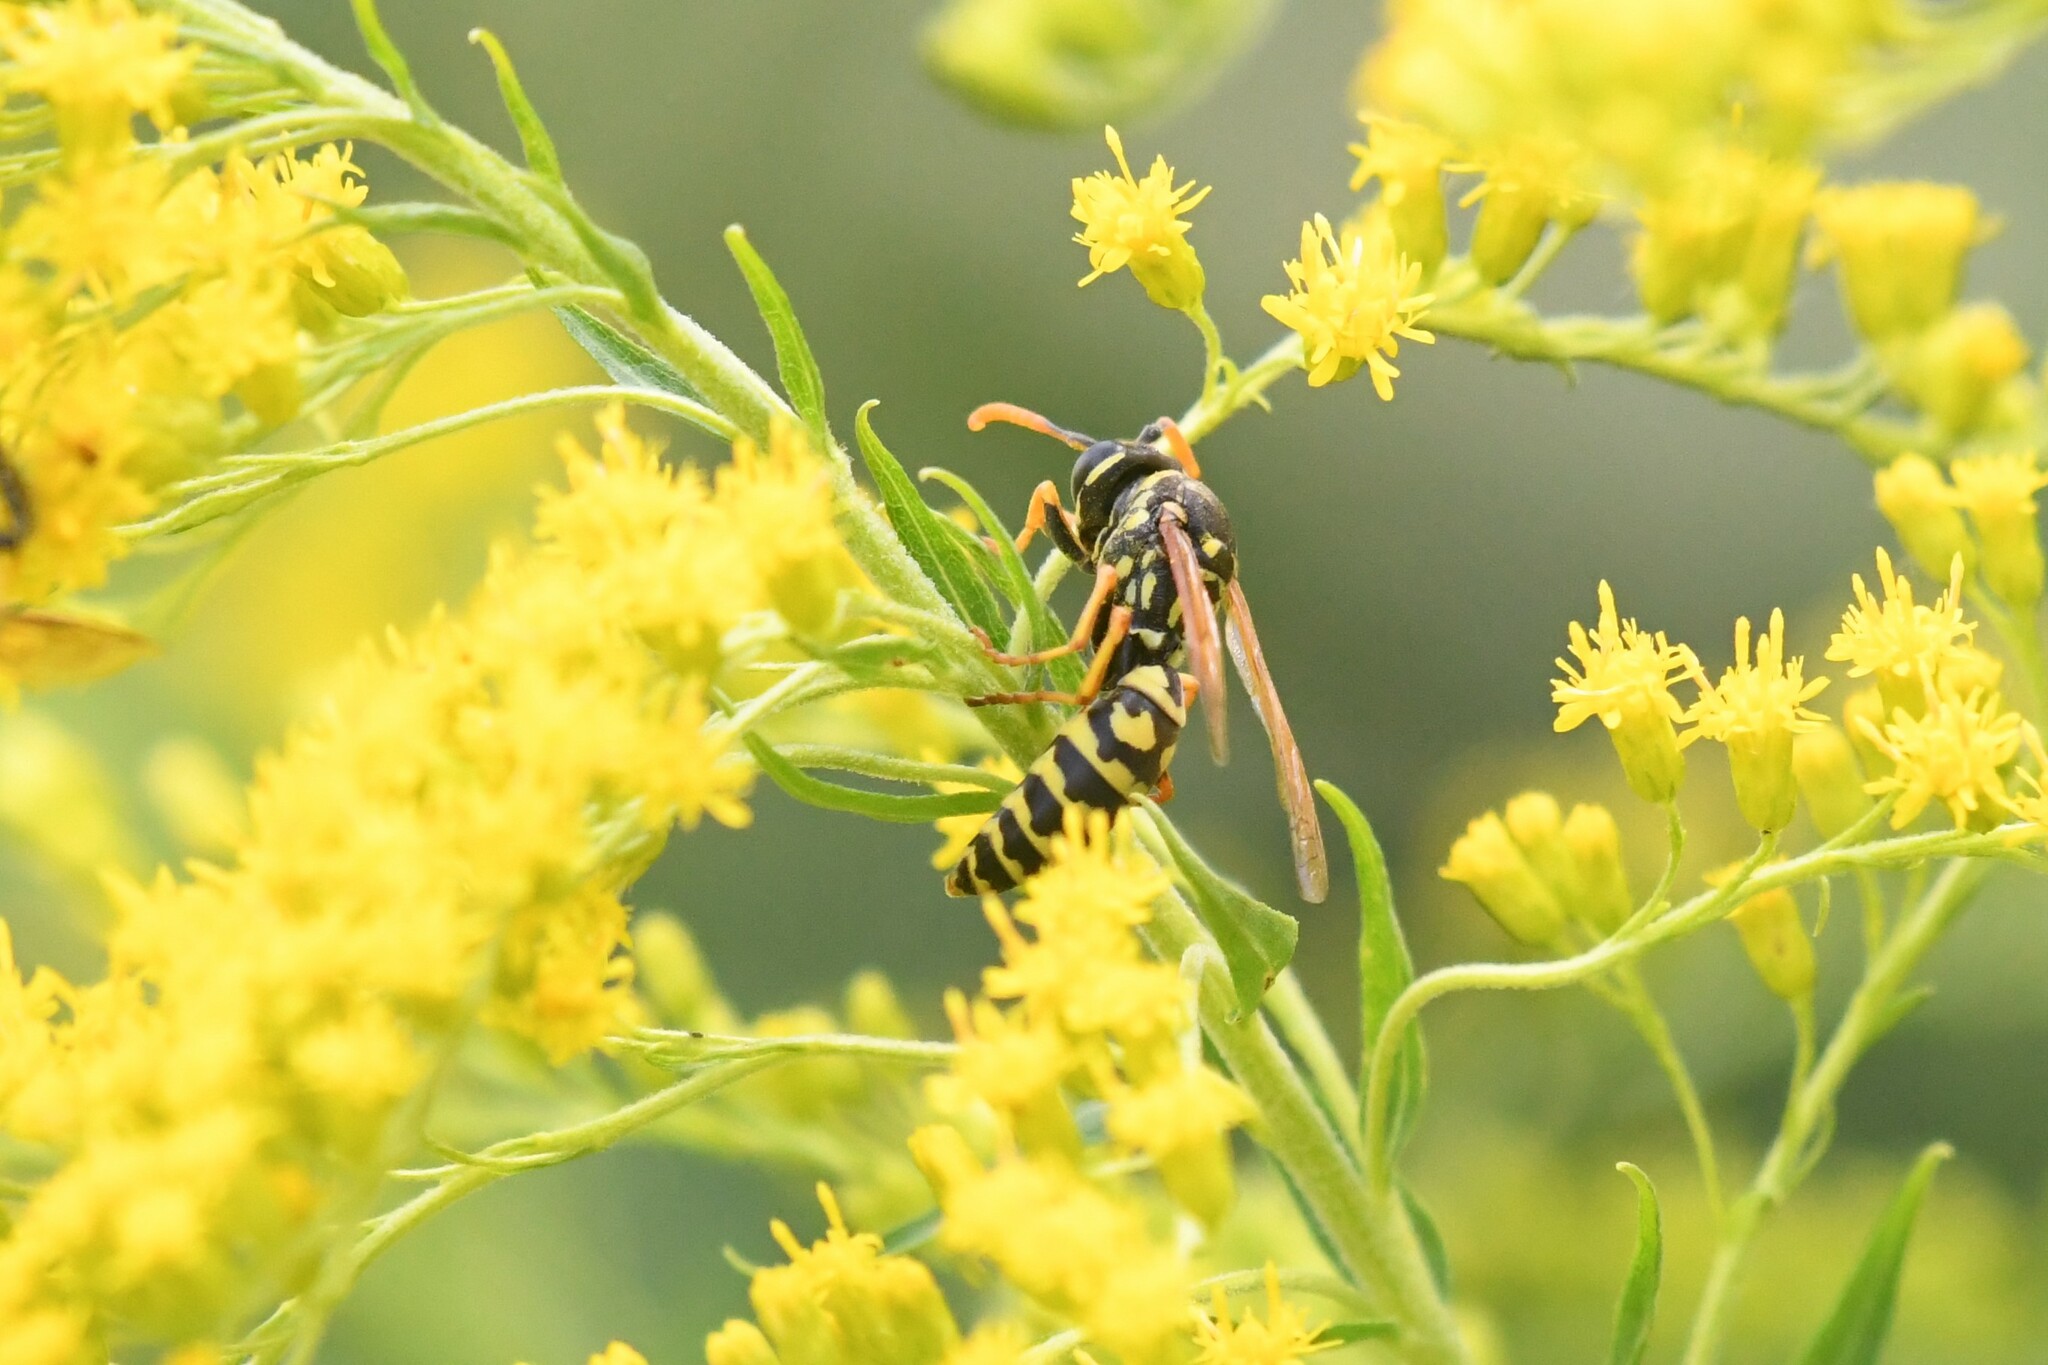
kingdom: Animalia
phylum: Arthropoda
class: Insecta
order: Hymenoptera
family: Eumenidae
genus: Polistes
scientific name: Polistes dominula
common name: Paper wasp
